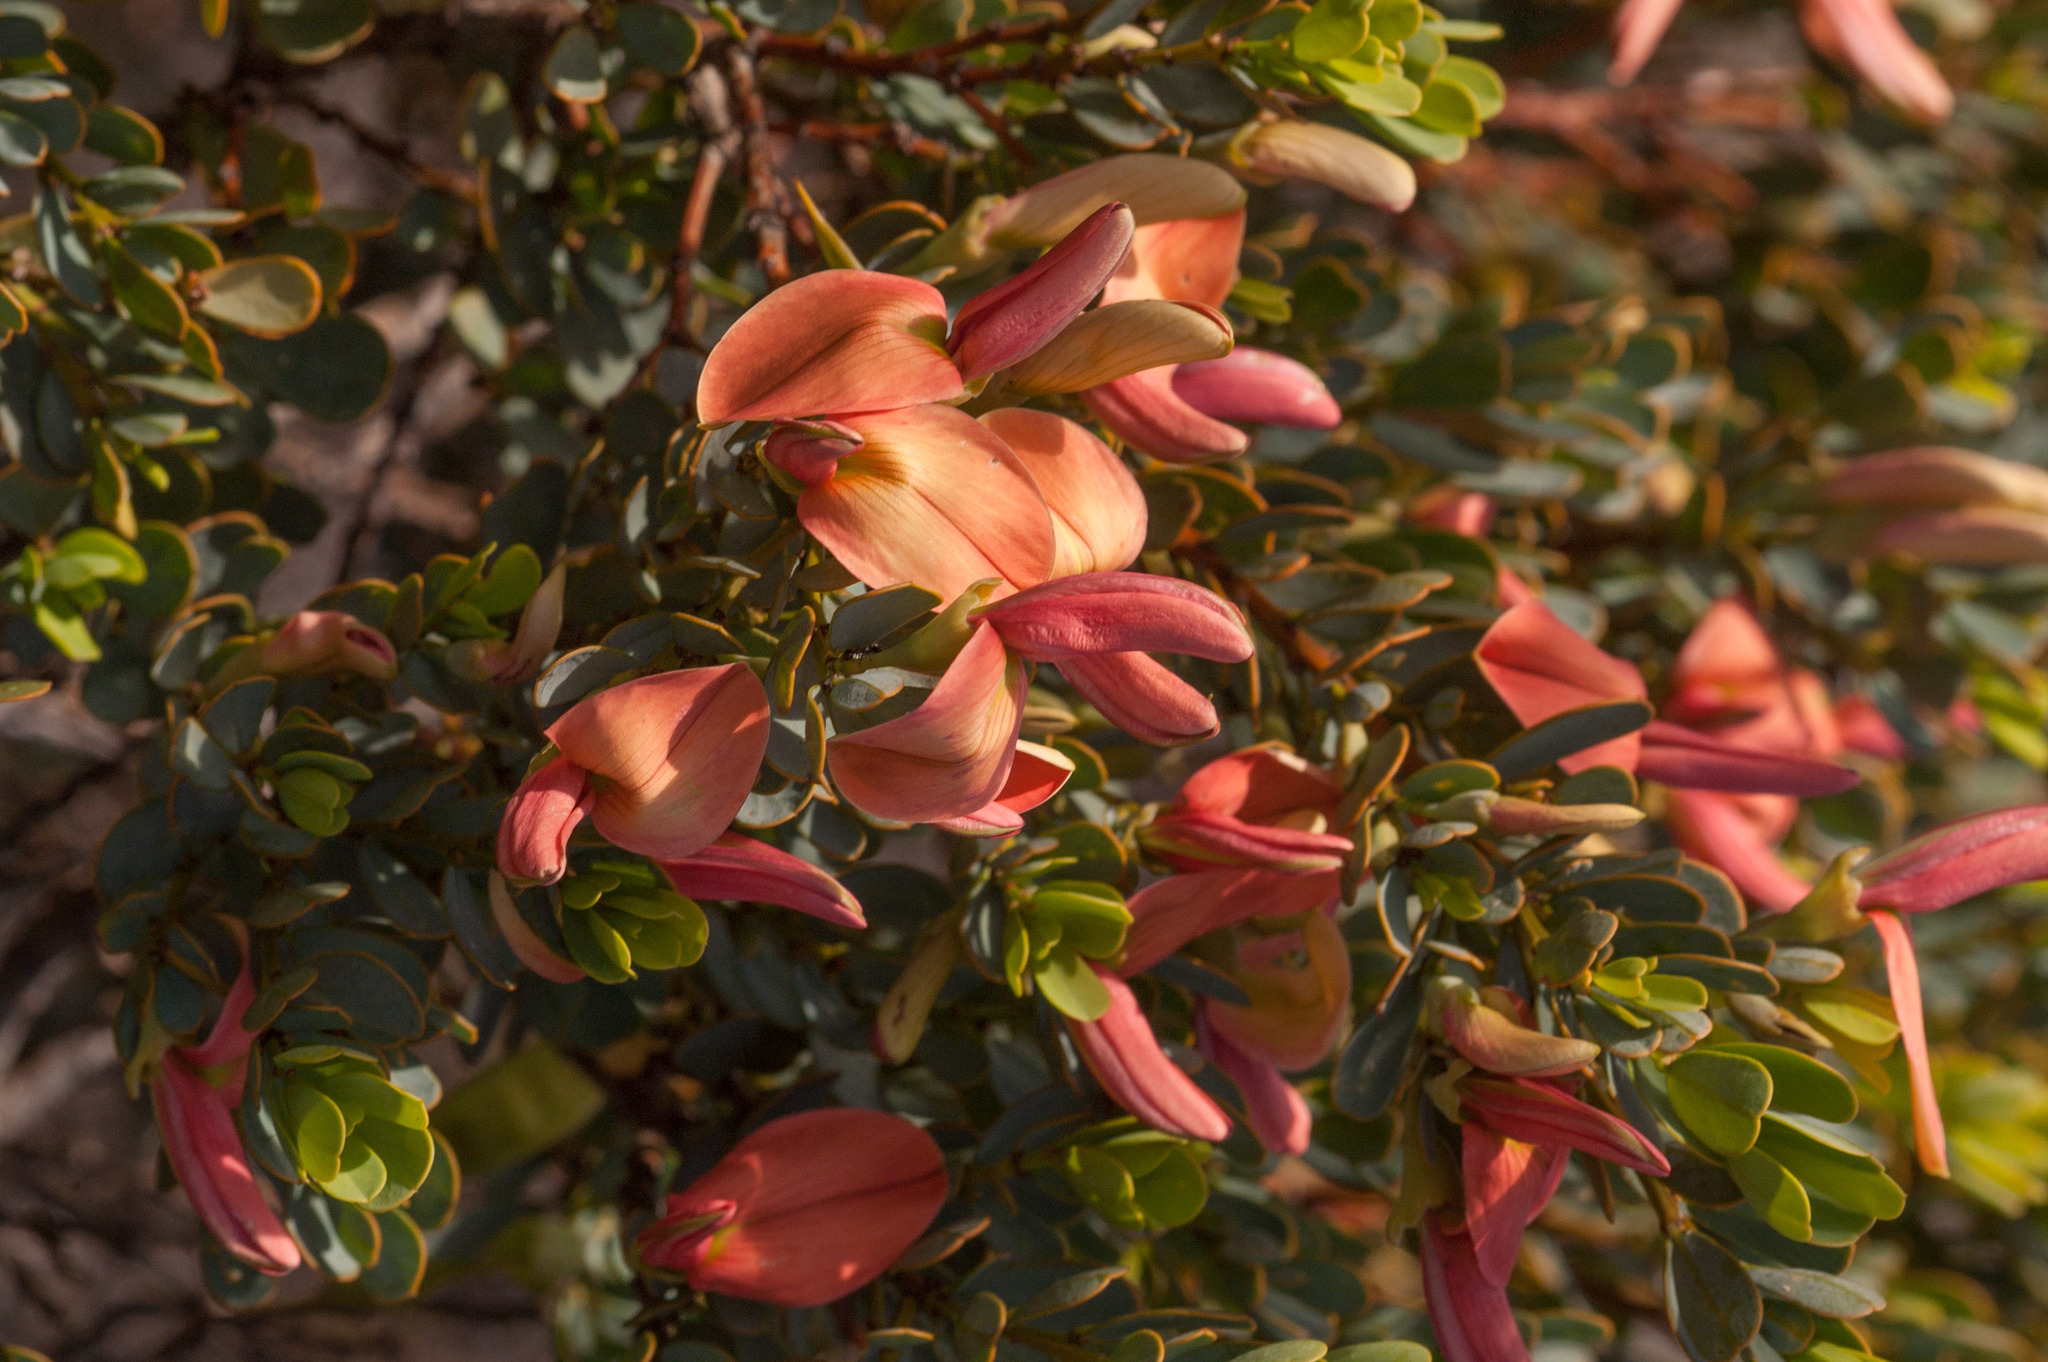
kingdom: Plantae
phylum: Tracheophyta
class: Magnoliopsida
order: Fabales
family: Fabaceae
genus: Templetonia
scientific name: Templetonia retusa
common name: Cockies'-tongue
